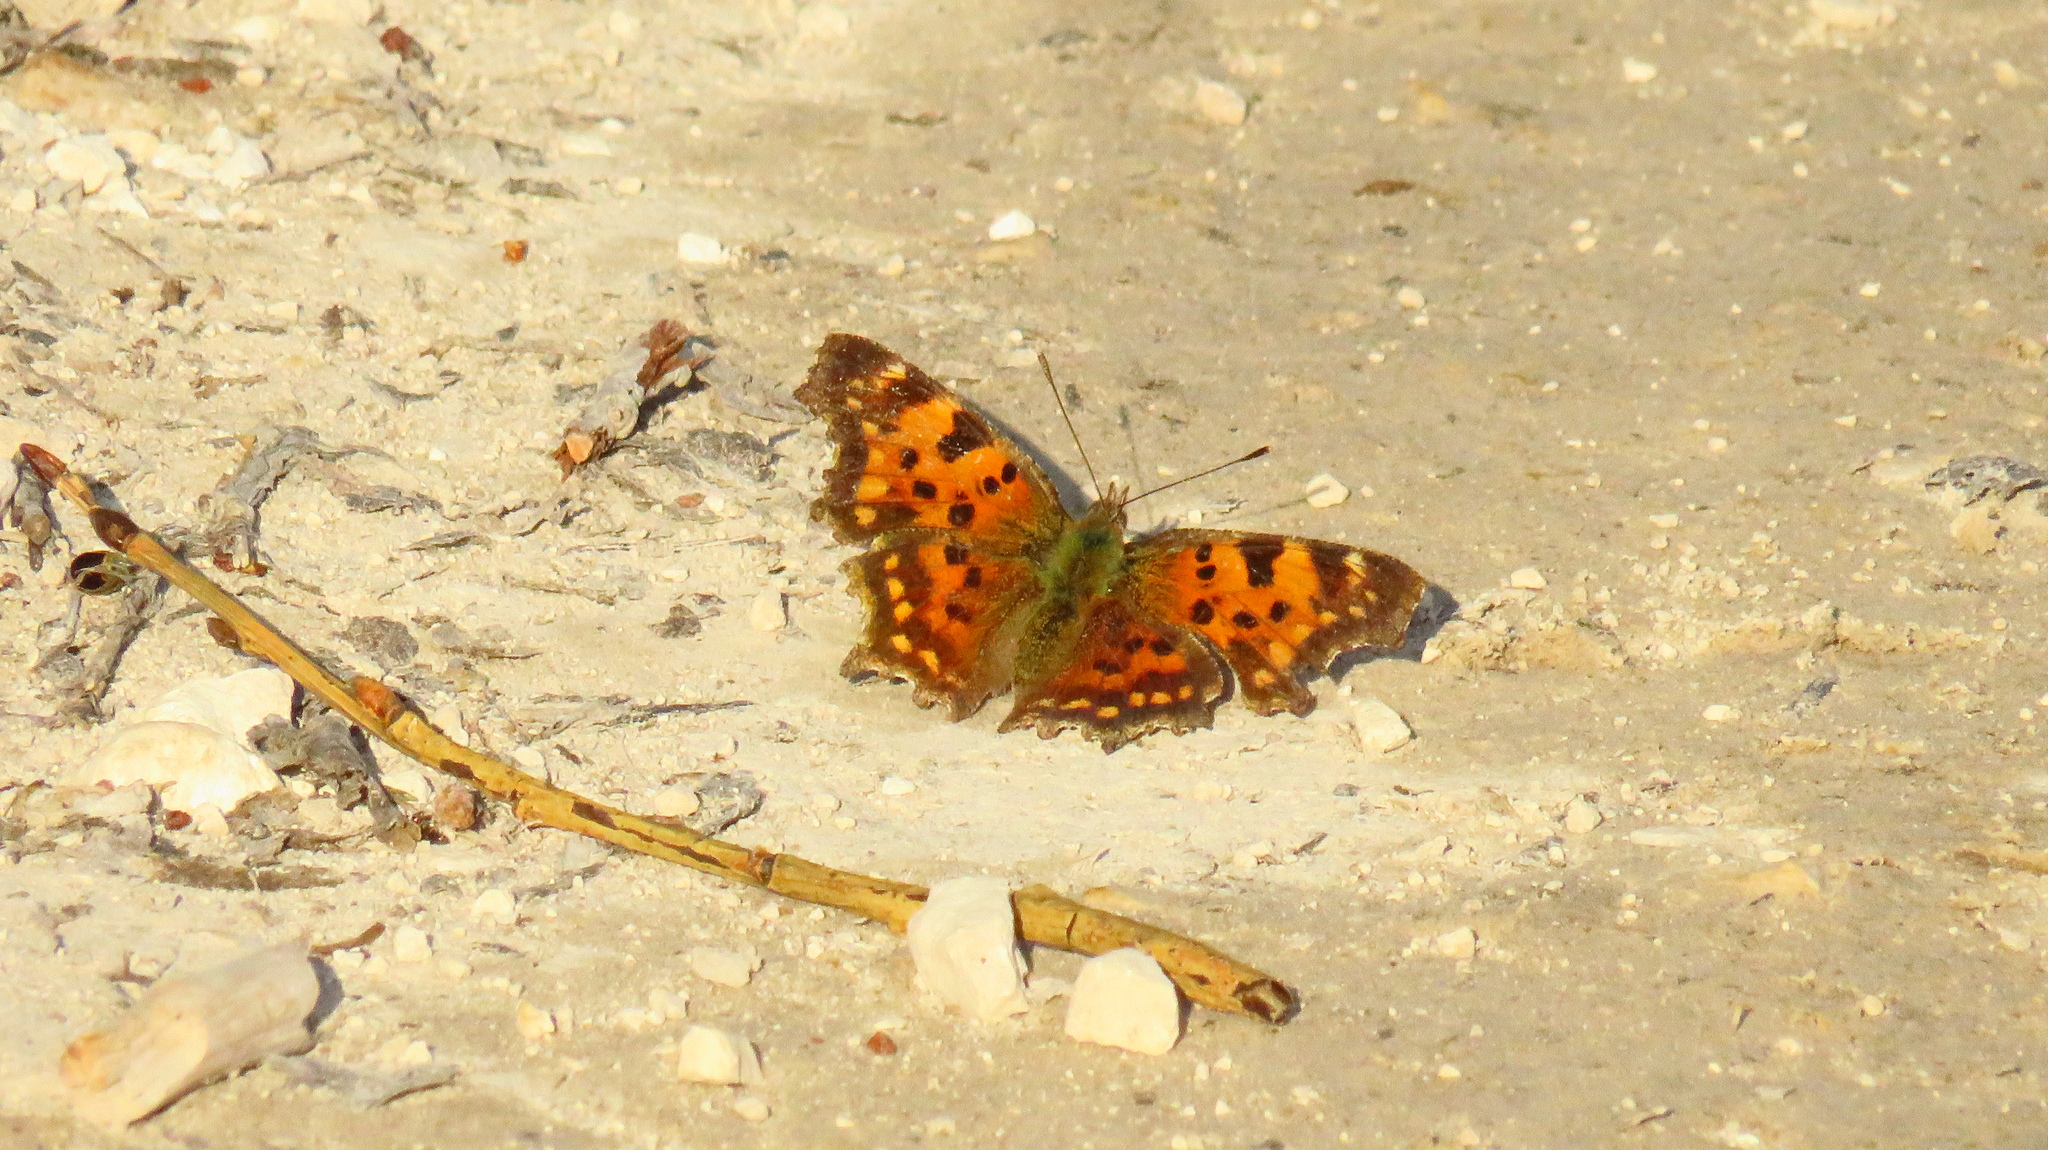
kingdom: Animalia
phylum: Arthropoda
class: Insecta
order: Lepidoptera
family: Nymphalidae
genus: Polygonia
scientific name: Polygonia c-album
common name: Comma
